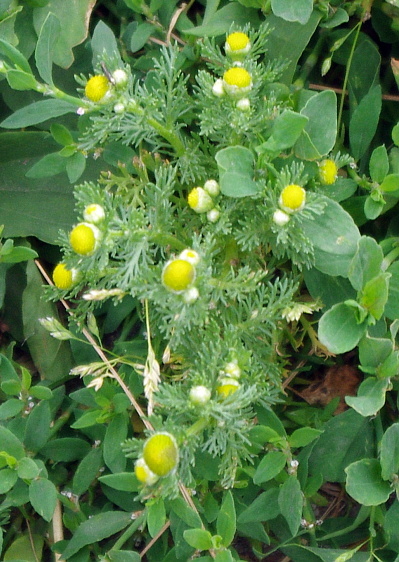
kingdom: Plantae
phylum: Tracheophyta
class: Magnoliopsida
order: Asterales
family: Asteraceae
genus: Matricaria
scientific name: Matricaria discoidea
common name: Disc mayweed
